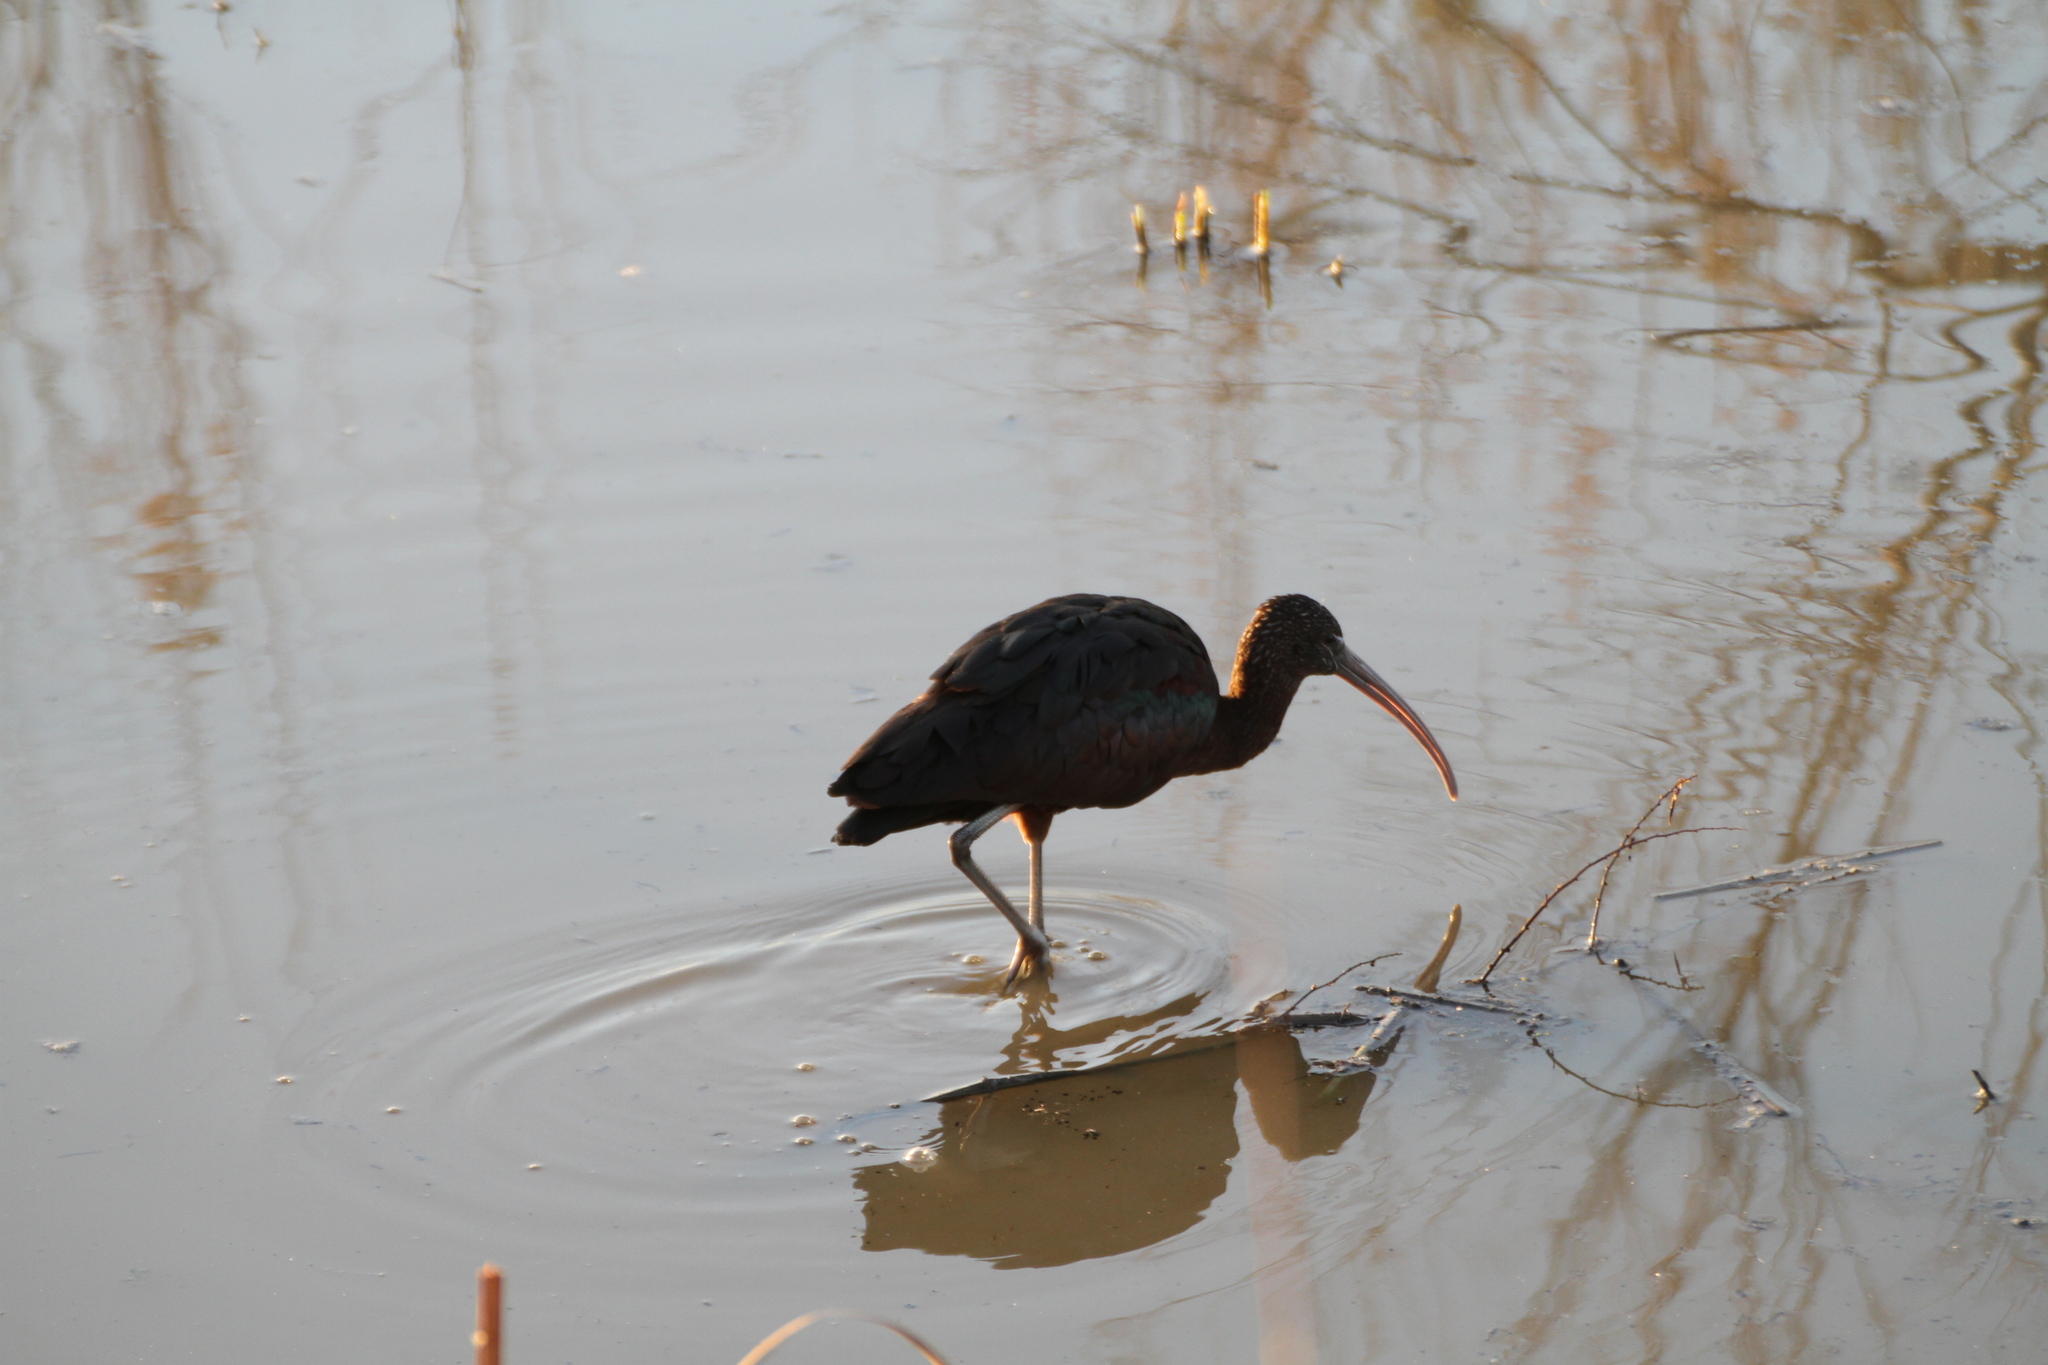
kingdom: Animalia
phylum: Chordata
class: Aves
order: Pelecaniformes
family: Threskiornithidae
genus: Plegadis
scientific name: Plegadis falcinellus
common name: Glossy ibis
